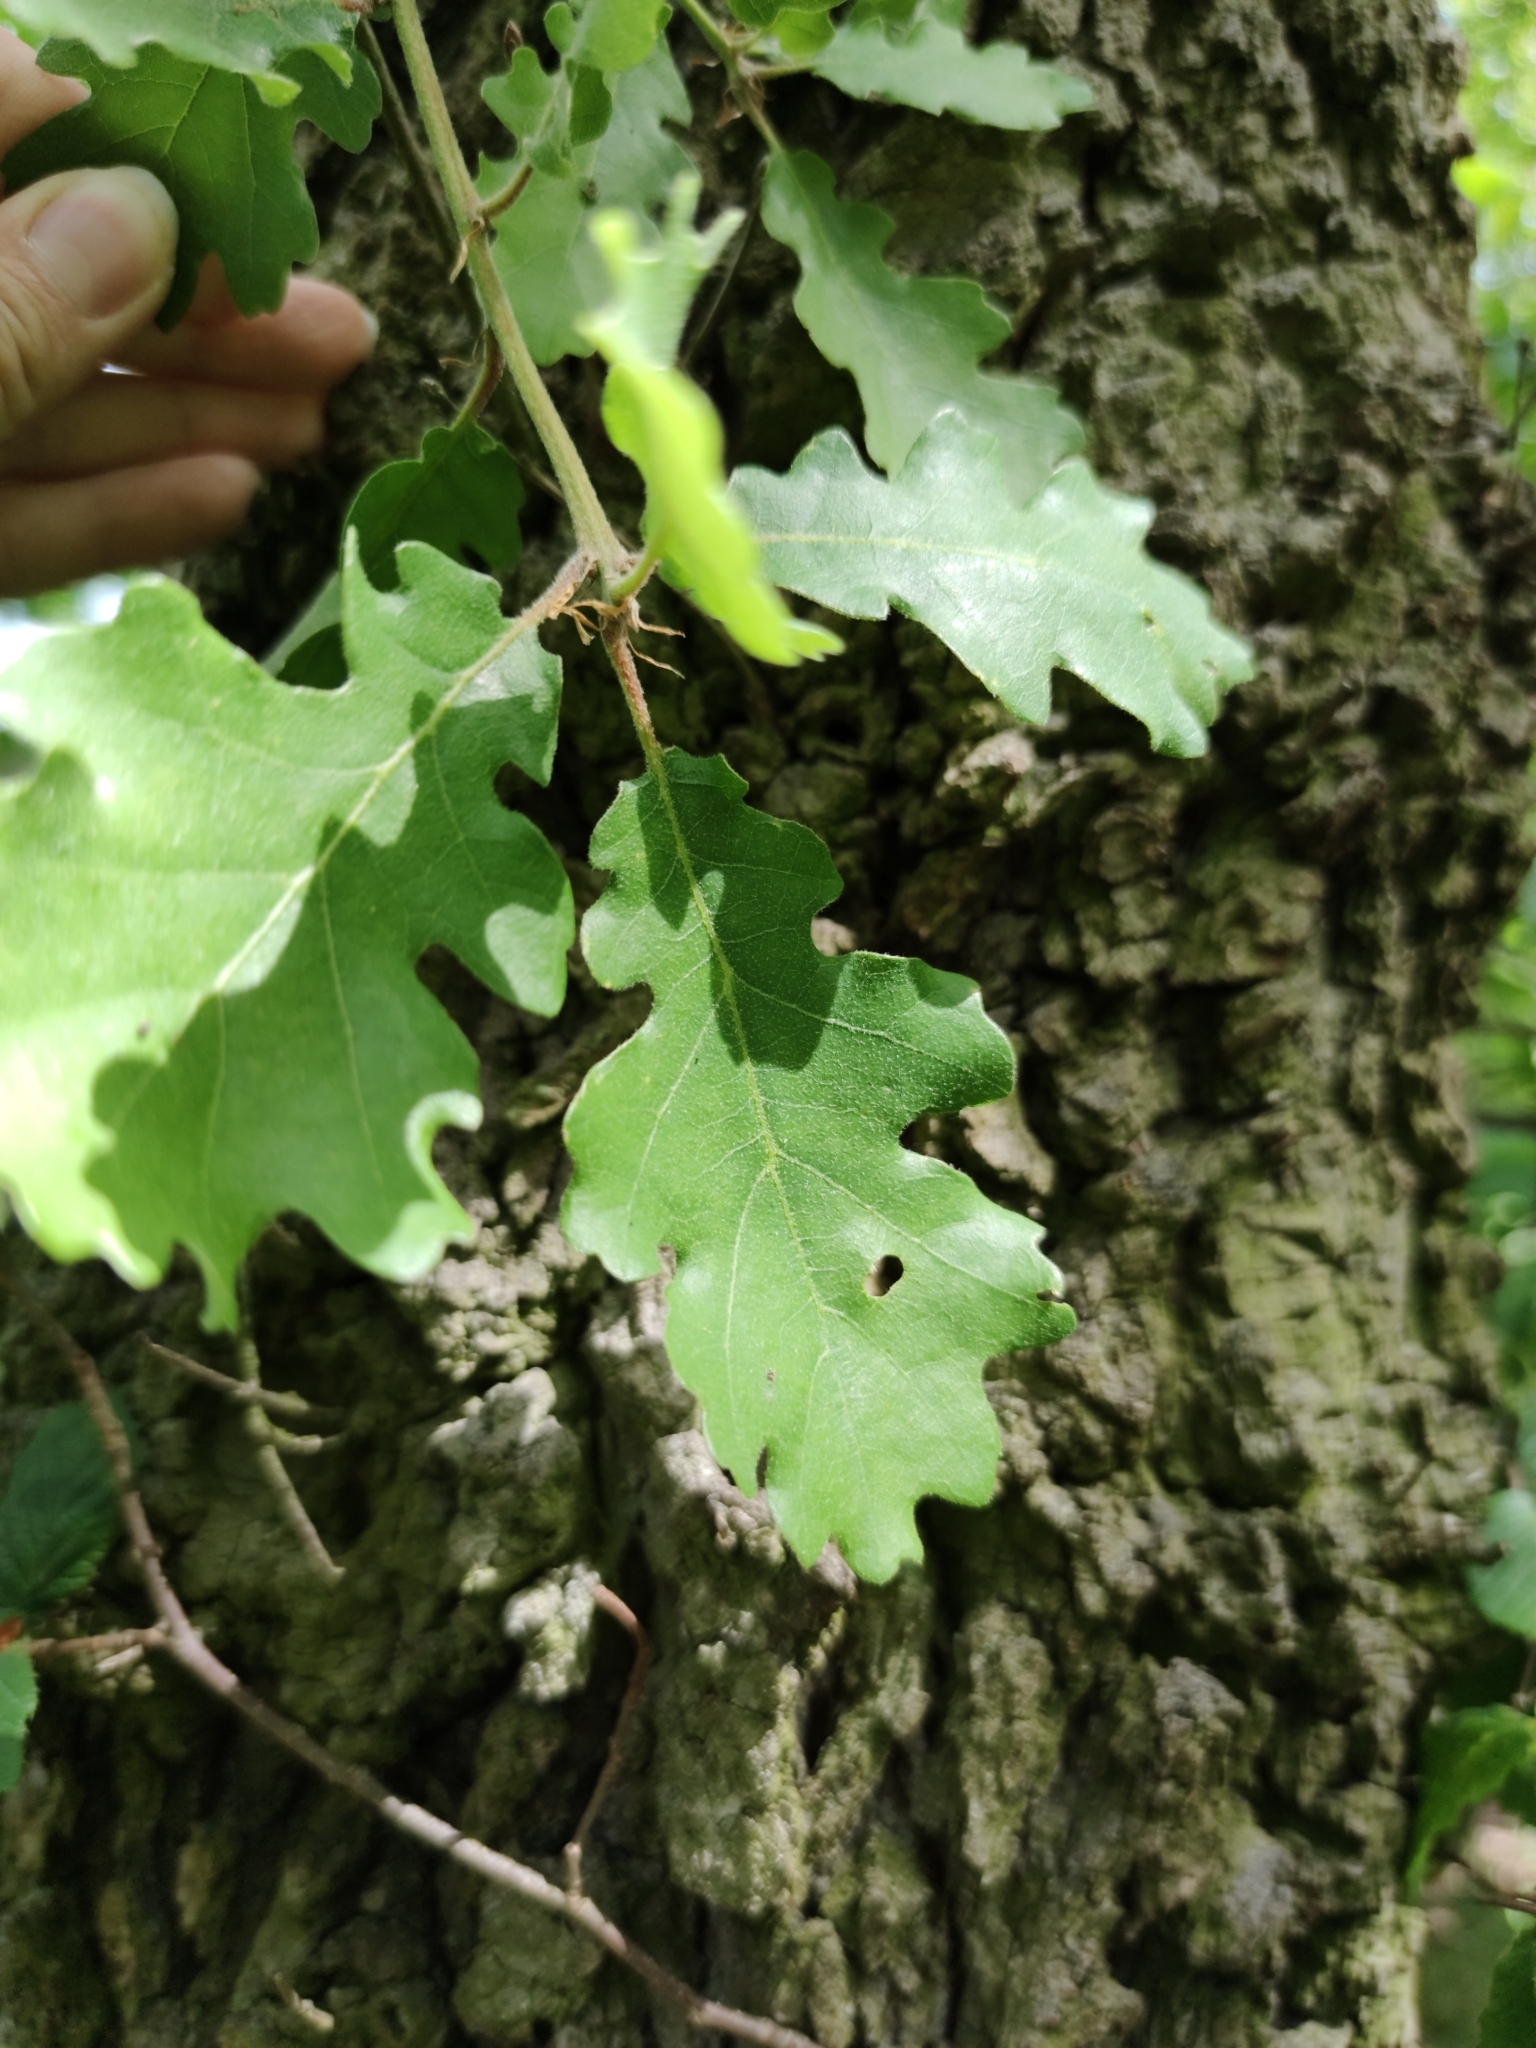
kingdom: Plantae
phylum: Tracheophyta
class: Magnoliopsida
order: Fagales
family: Fagaceae
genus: Quercus
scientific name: Quercus pubescens
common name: Downy oak
